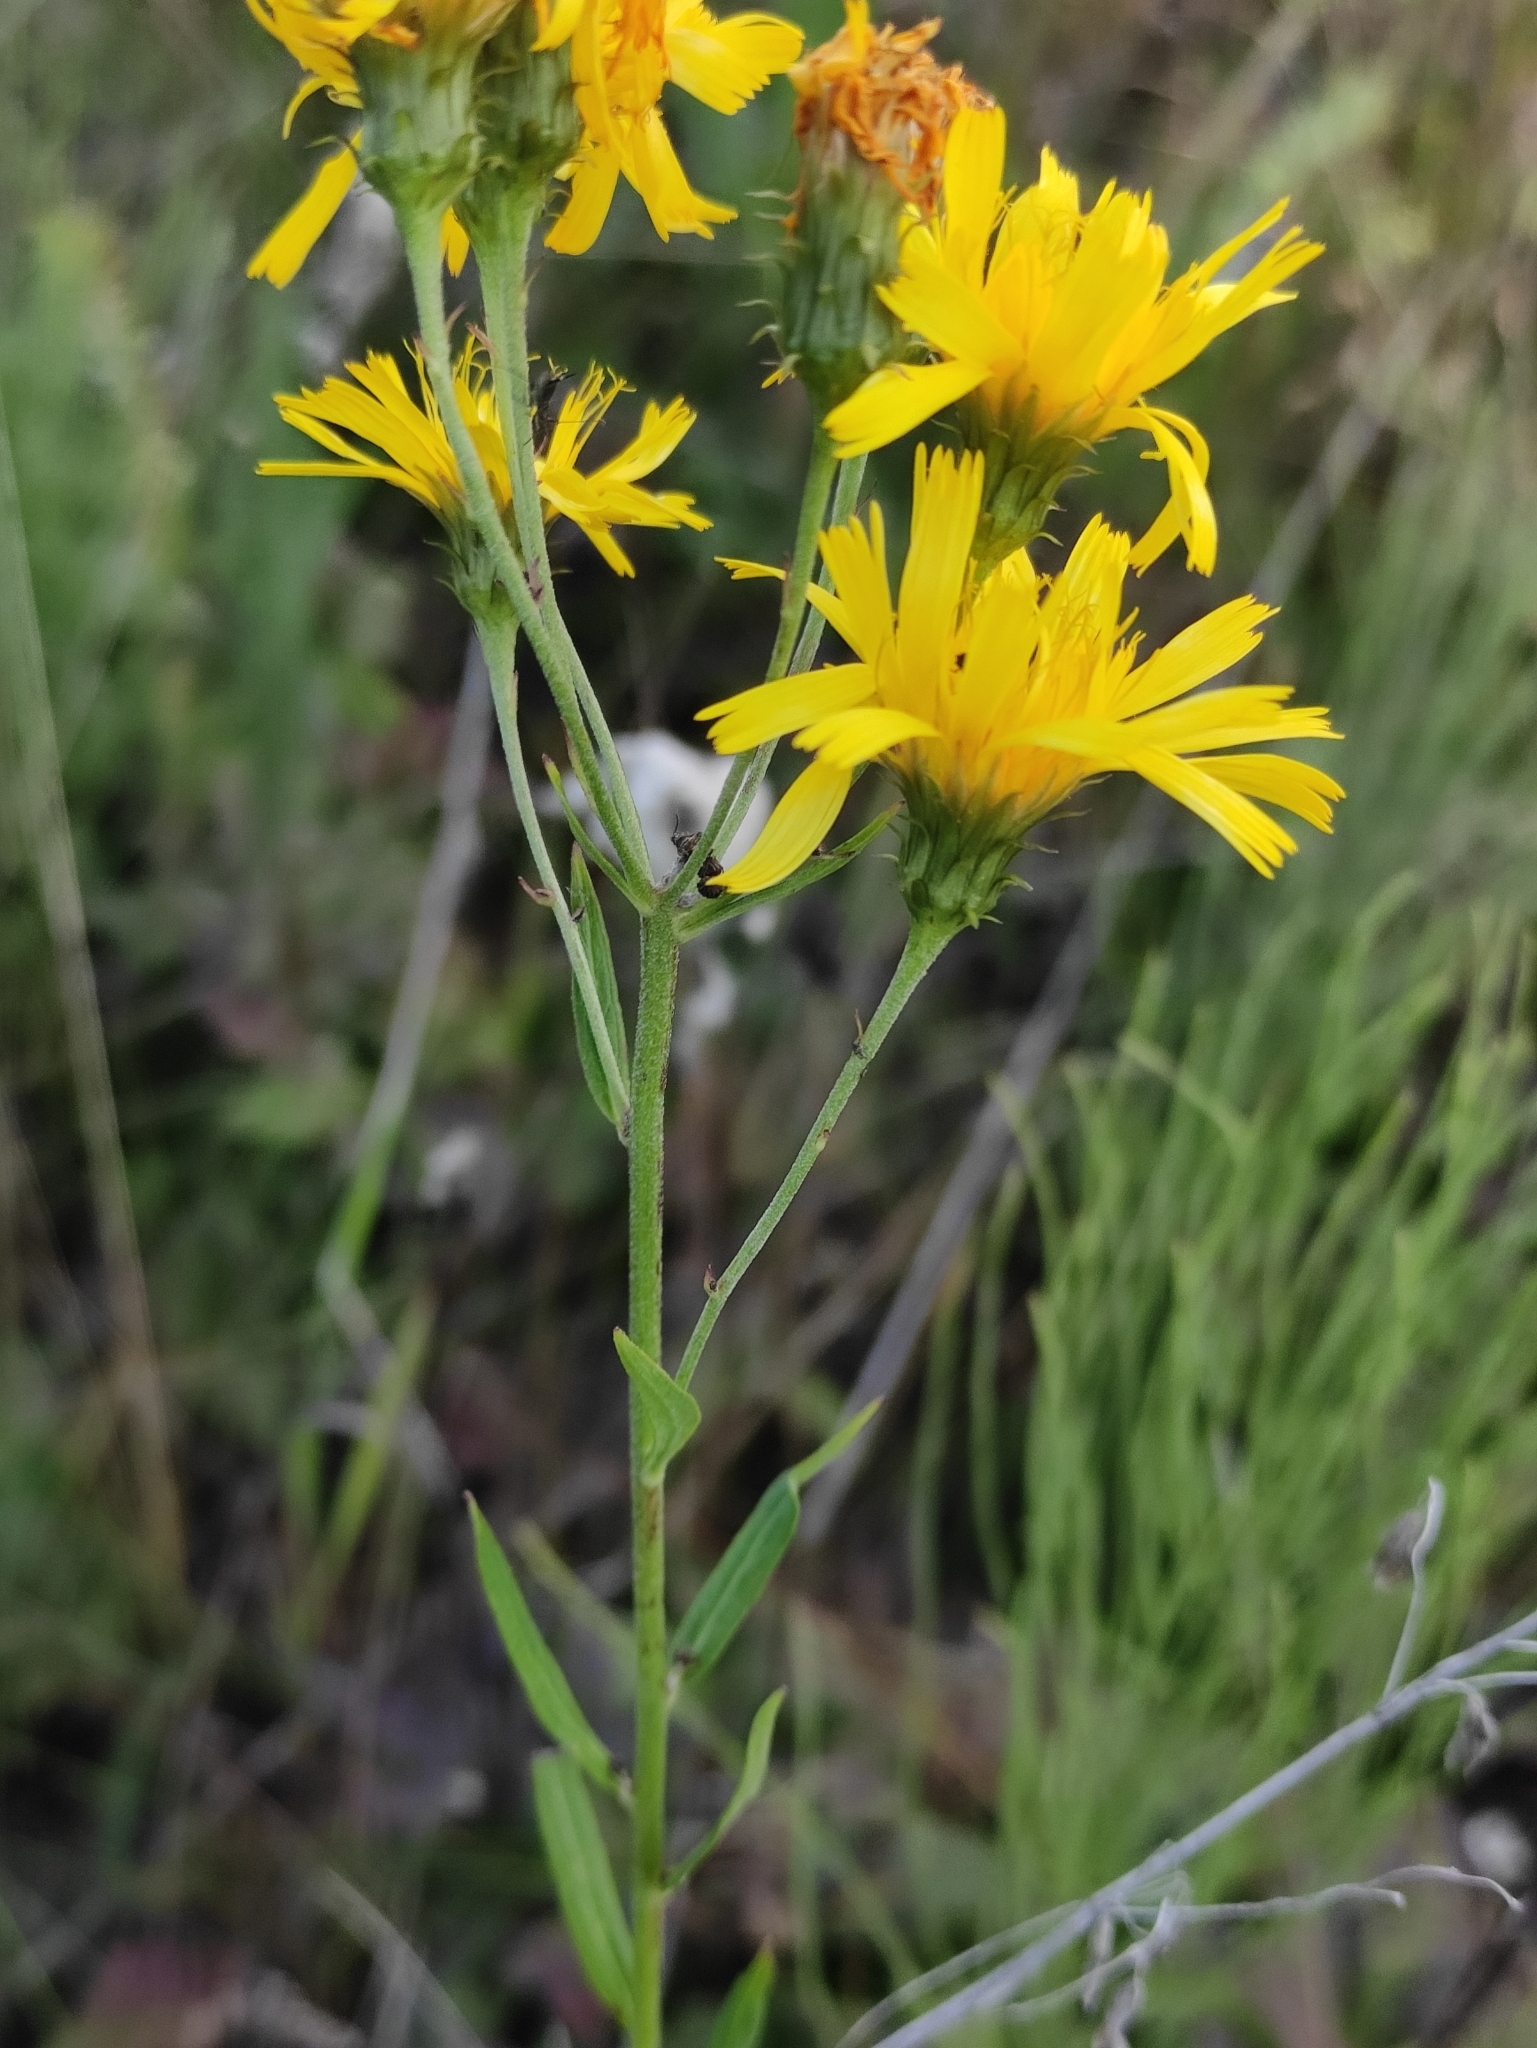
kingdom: Plantae
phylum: Tracheophyta
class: Magnoliopsida
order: Asterales
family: Asteraceae
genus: Hieracium
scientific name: Hieracium umbellatum
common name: Northern hawkweed
